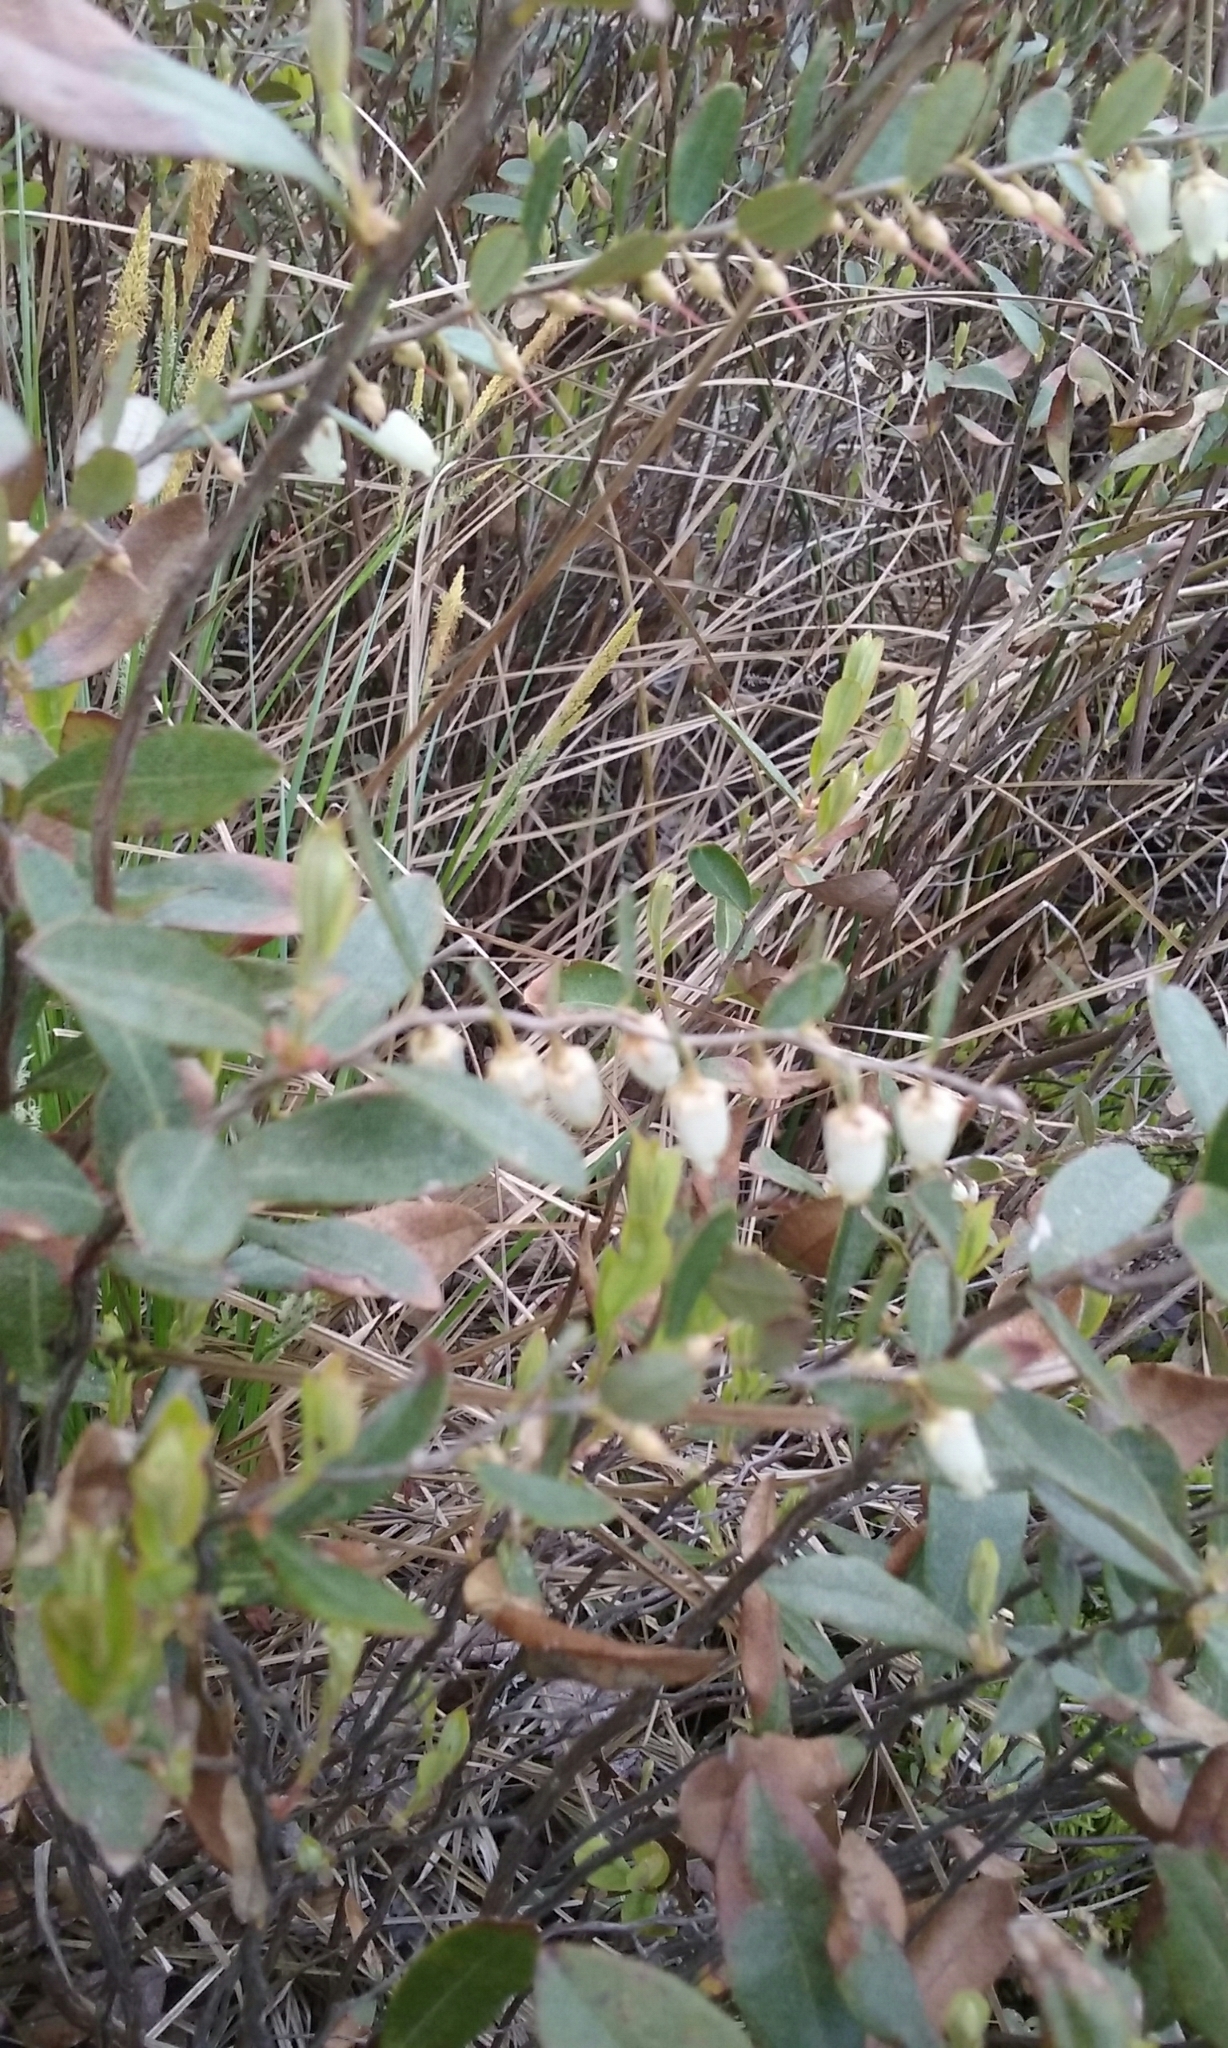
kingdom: Plantae
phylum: Tracheophyta
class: Magnoliopsida
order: Ericales
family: Ericaceae
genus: Chamaedaphne
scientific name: Chamaedaphne calyculata
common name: Leatherleaf
